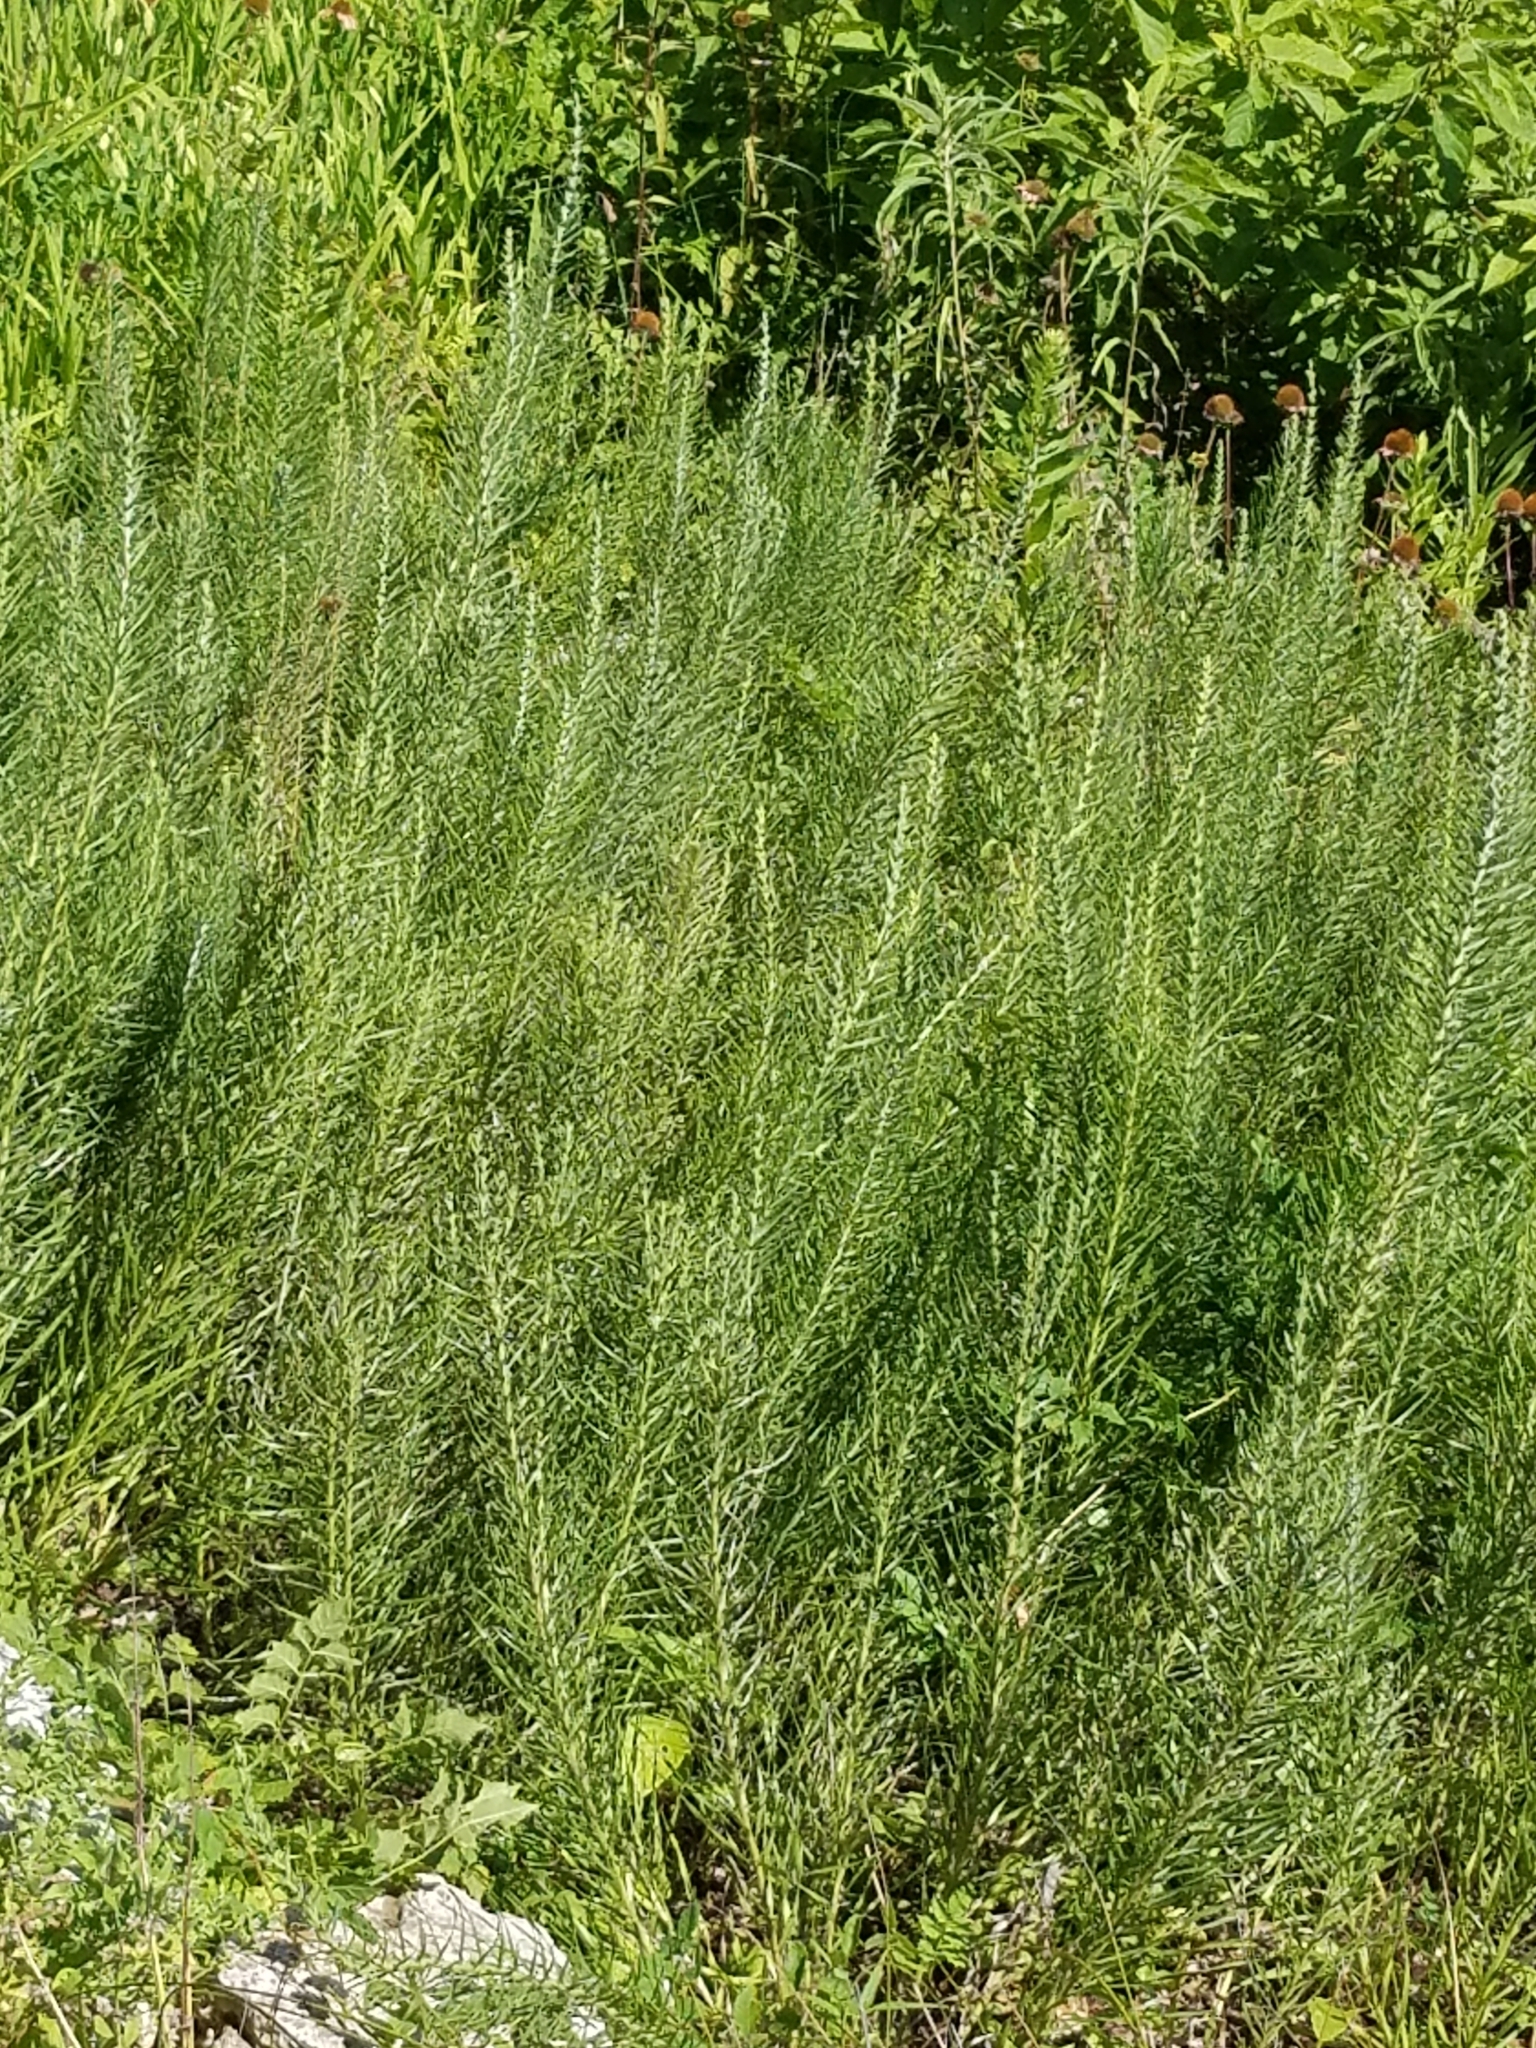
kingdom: Plantae
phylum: Tracheophyta
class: Magnoliopsida
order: Asterales
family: Asteraceae
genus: Liatris
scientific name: Liatris punctata
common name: Dotted gayfeather
